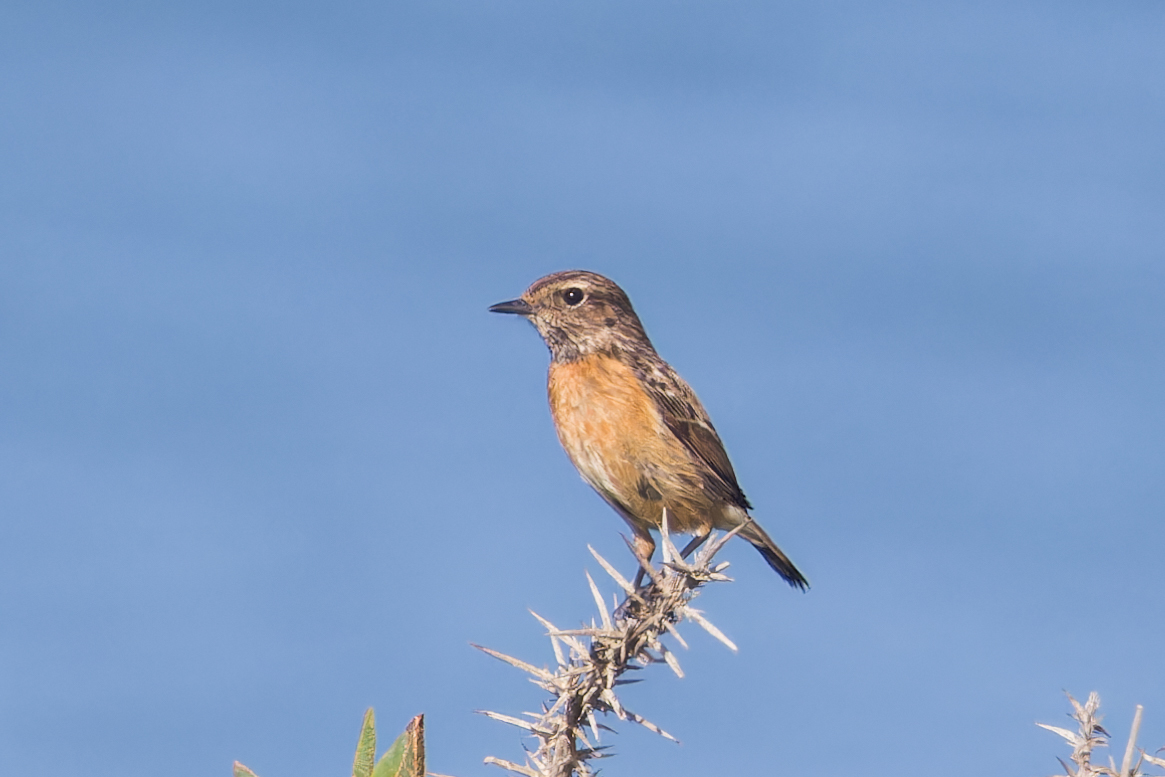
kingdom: Animalia
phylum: Chordata
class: Aves
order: Passeriformes
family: Muscicapidae
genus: Saxicola
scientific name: Saxicola rubicola
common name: European stonechat
